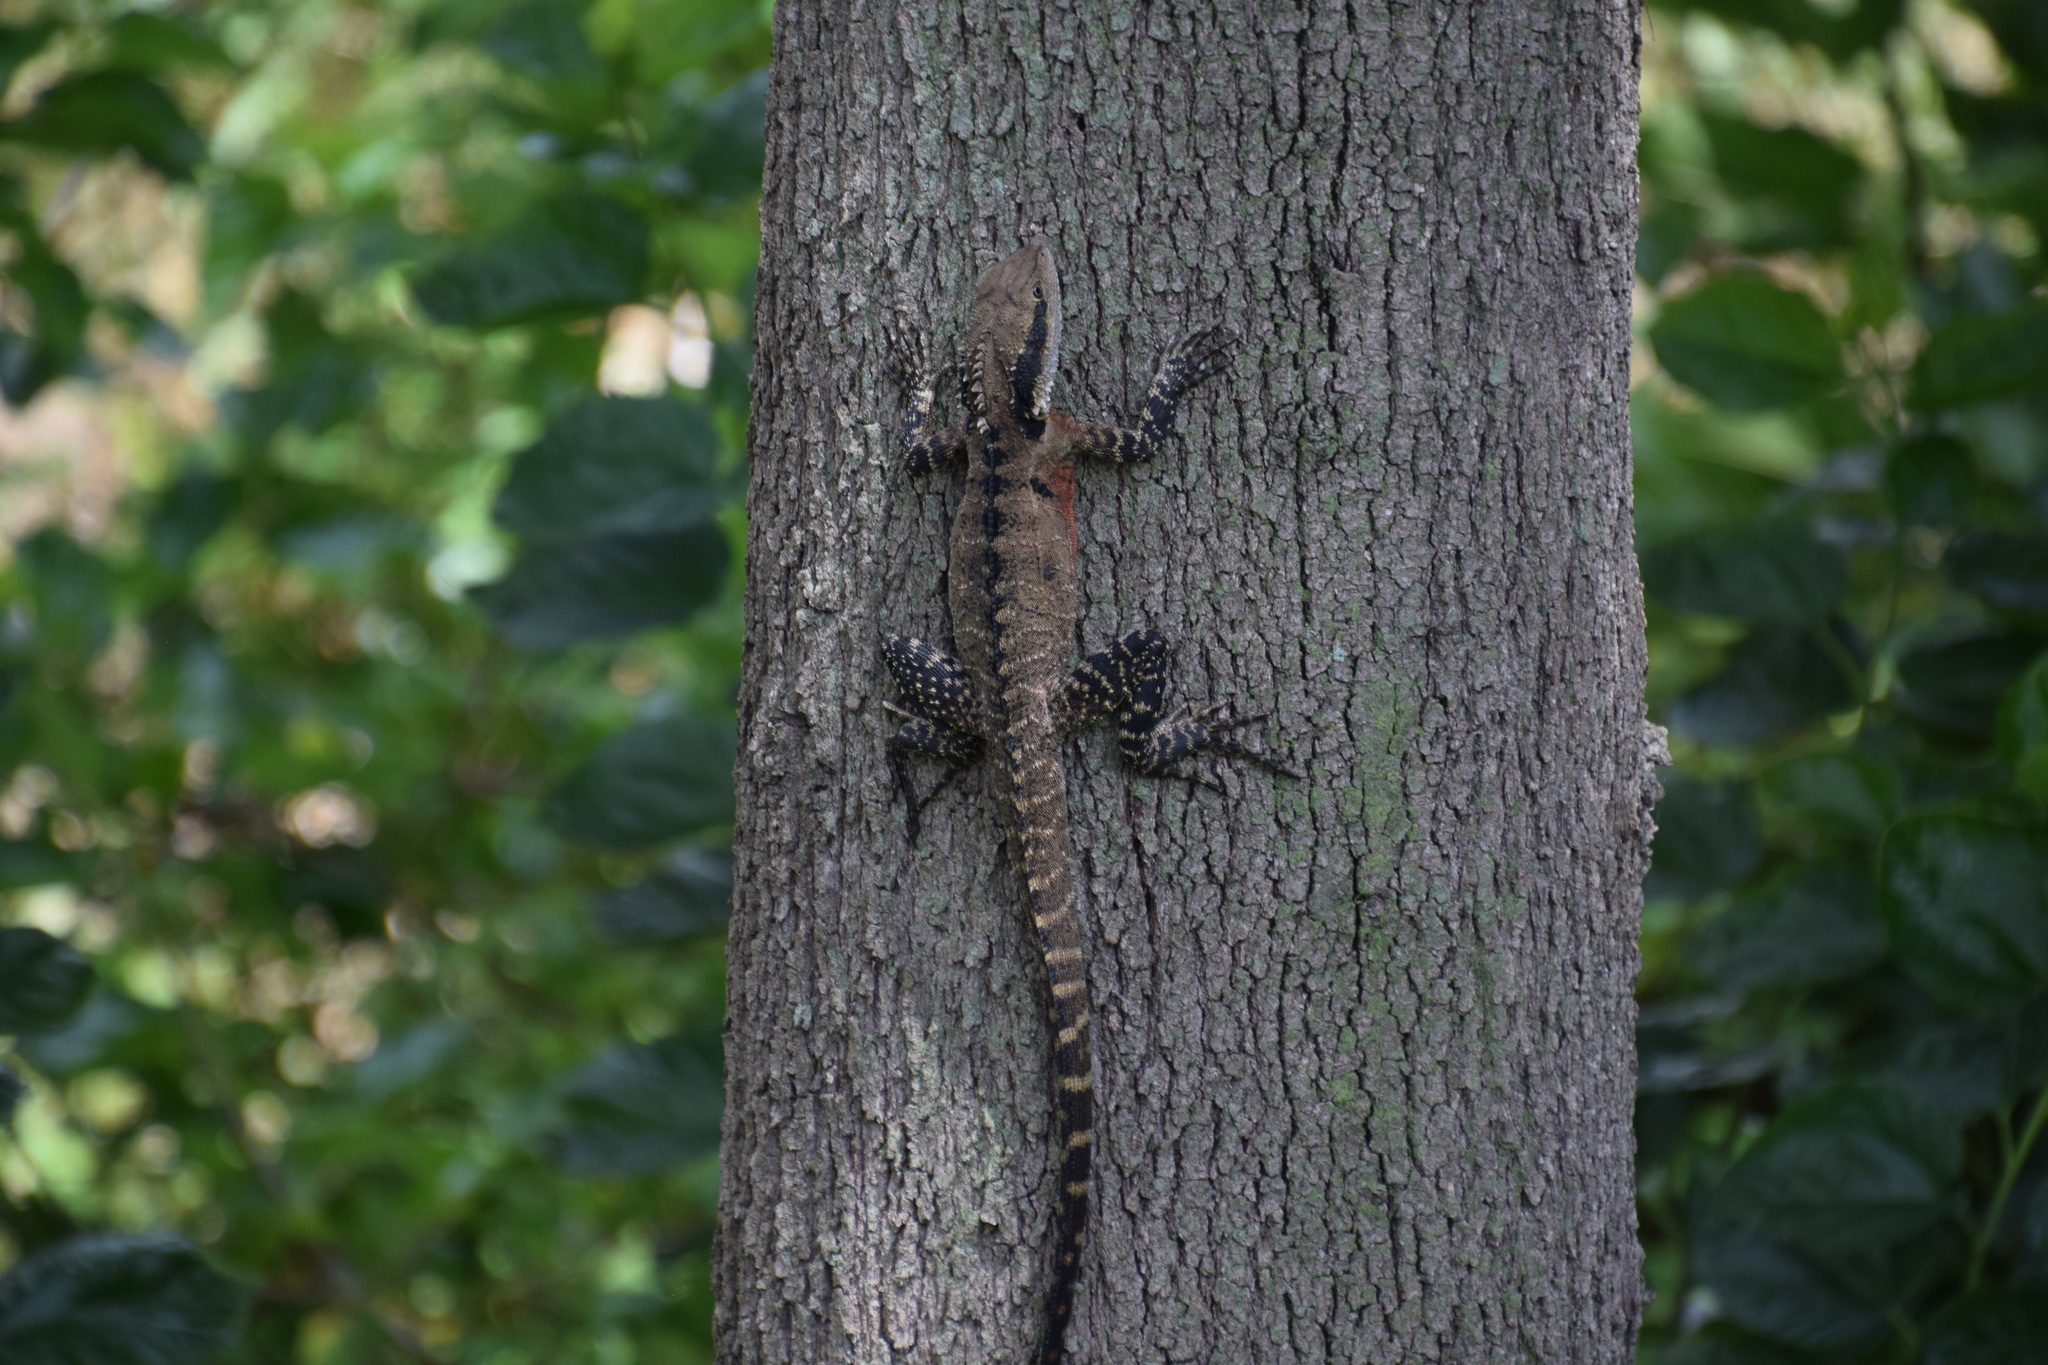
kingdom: Animalia
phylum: Chordata
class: Squamata
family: Agamidae
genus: Intellagama
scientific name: Intellagama lesueurii
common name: Eastern water dragon
